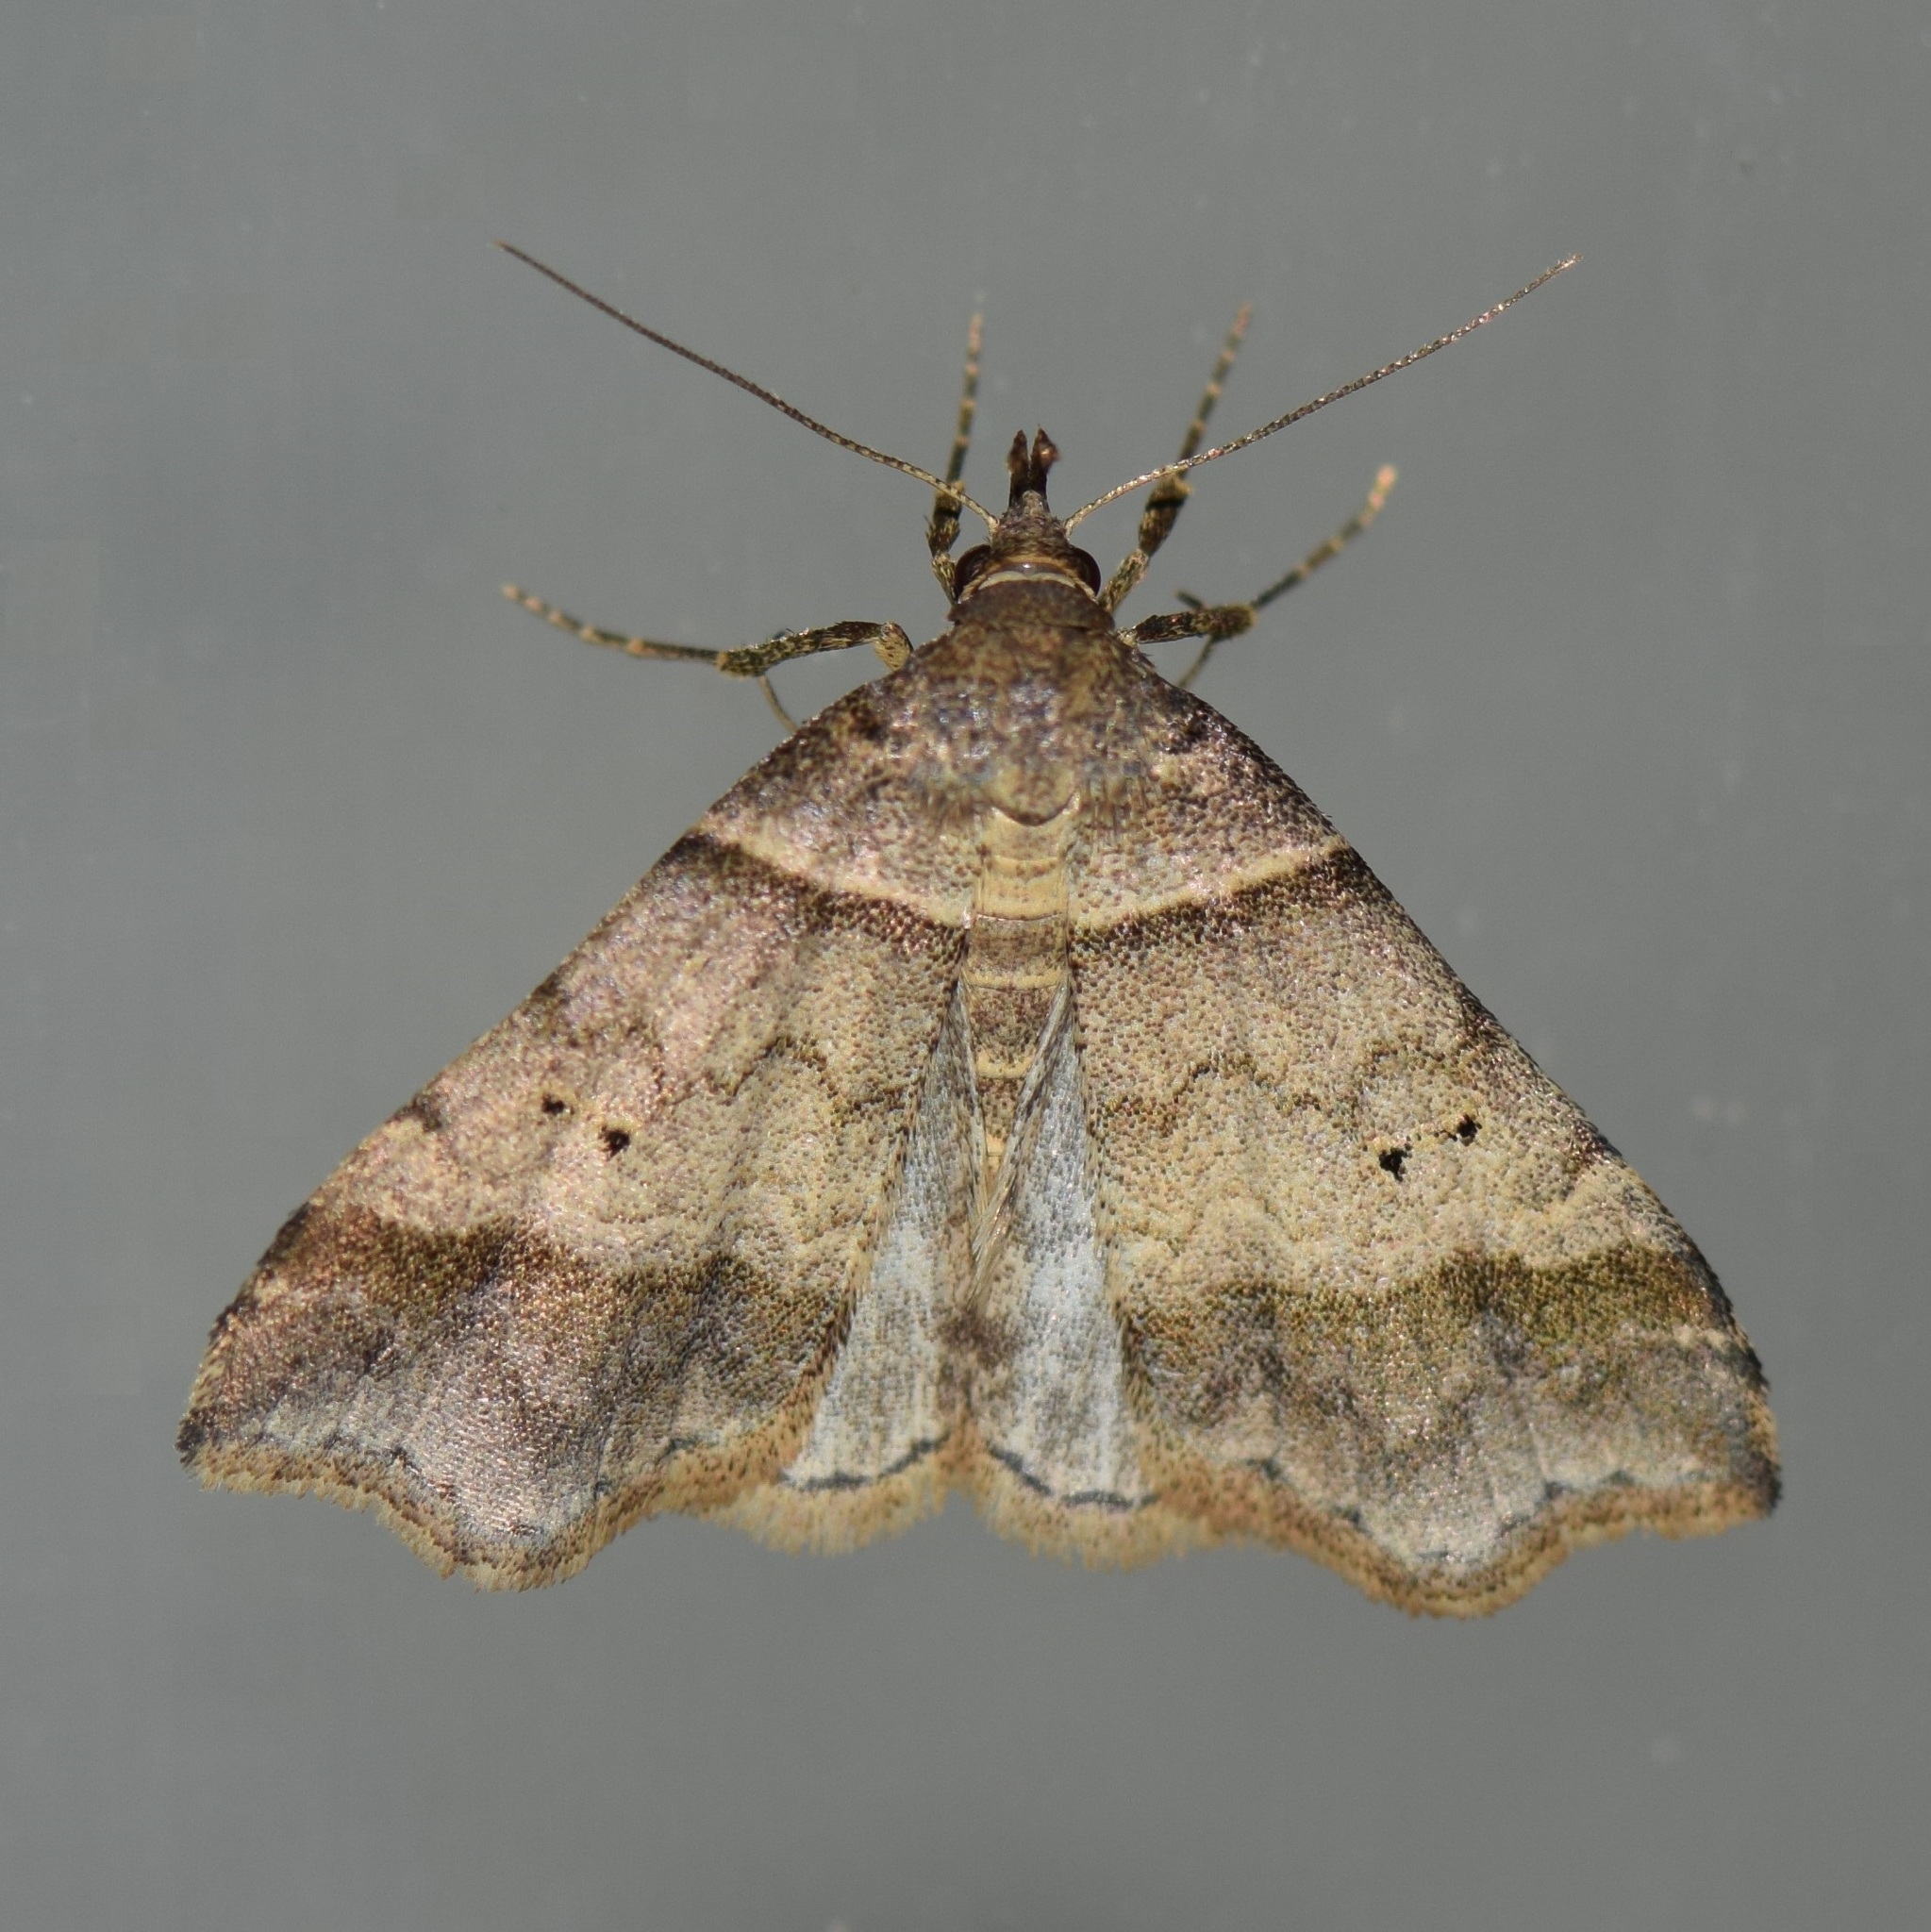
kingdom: Animalia
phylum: Arthropoda
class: Insecta
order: Lepidoptera
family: Erebidae
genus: Phaeolita
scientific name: Phaeolita pyramusalis
